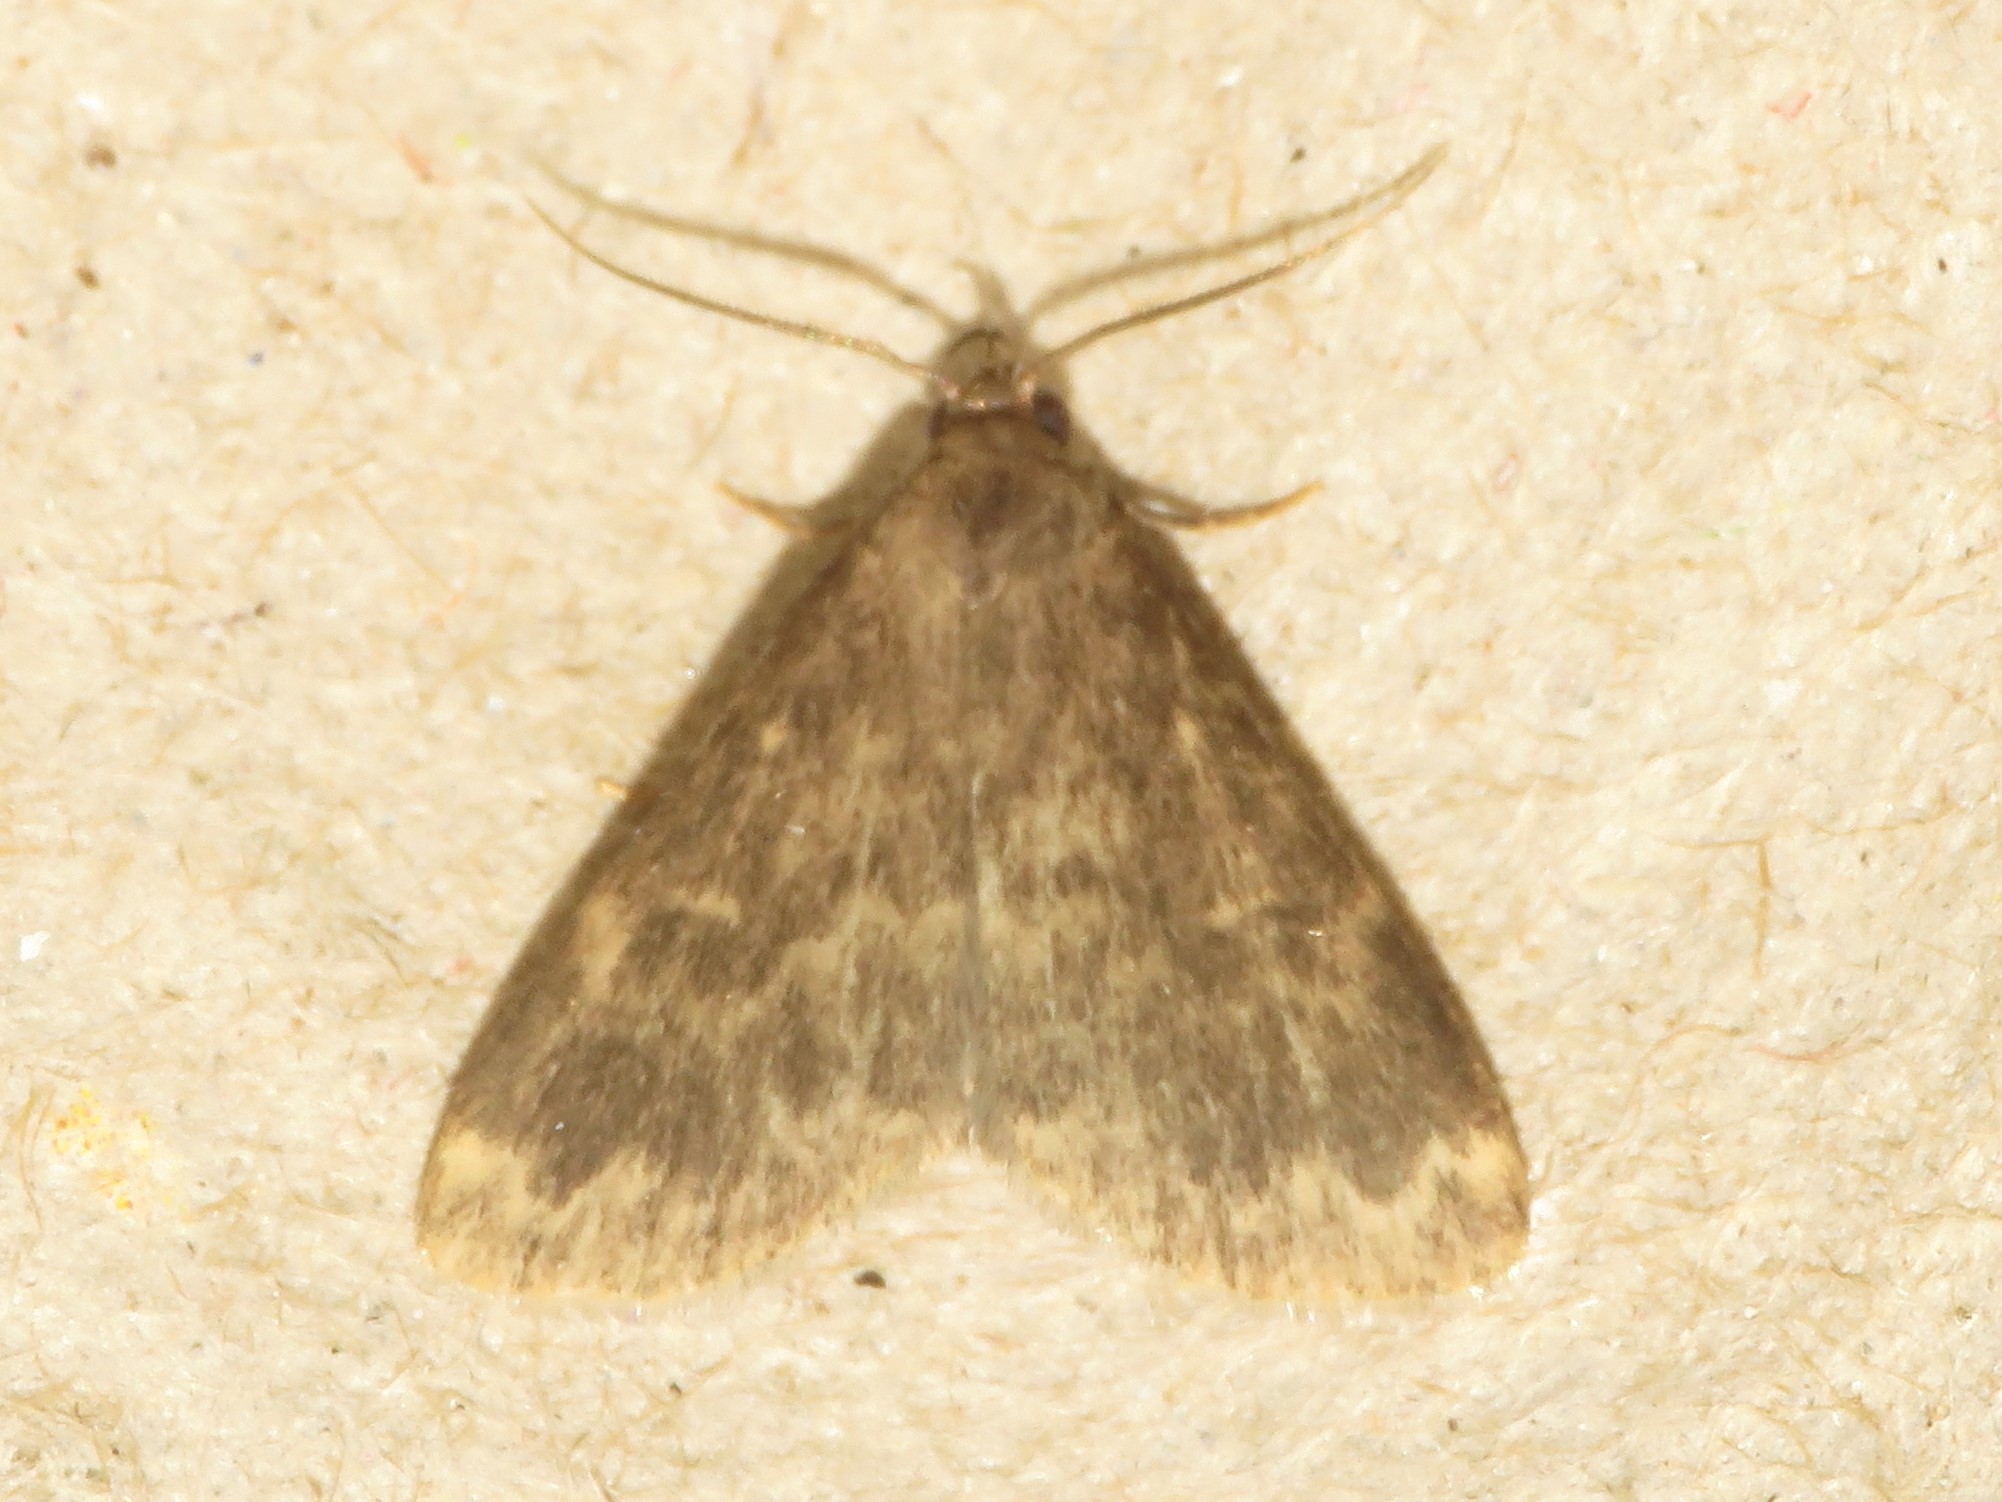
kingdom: Animalia
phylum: Arthropoda
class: Insecta
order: Lepidoptera
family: Erebidae
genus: Idia
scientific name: Idia lubricalis
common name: Twin-striped tabby
